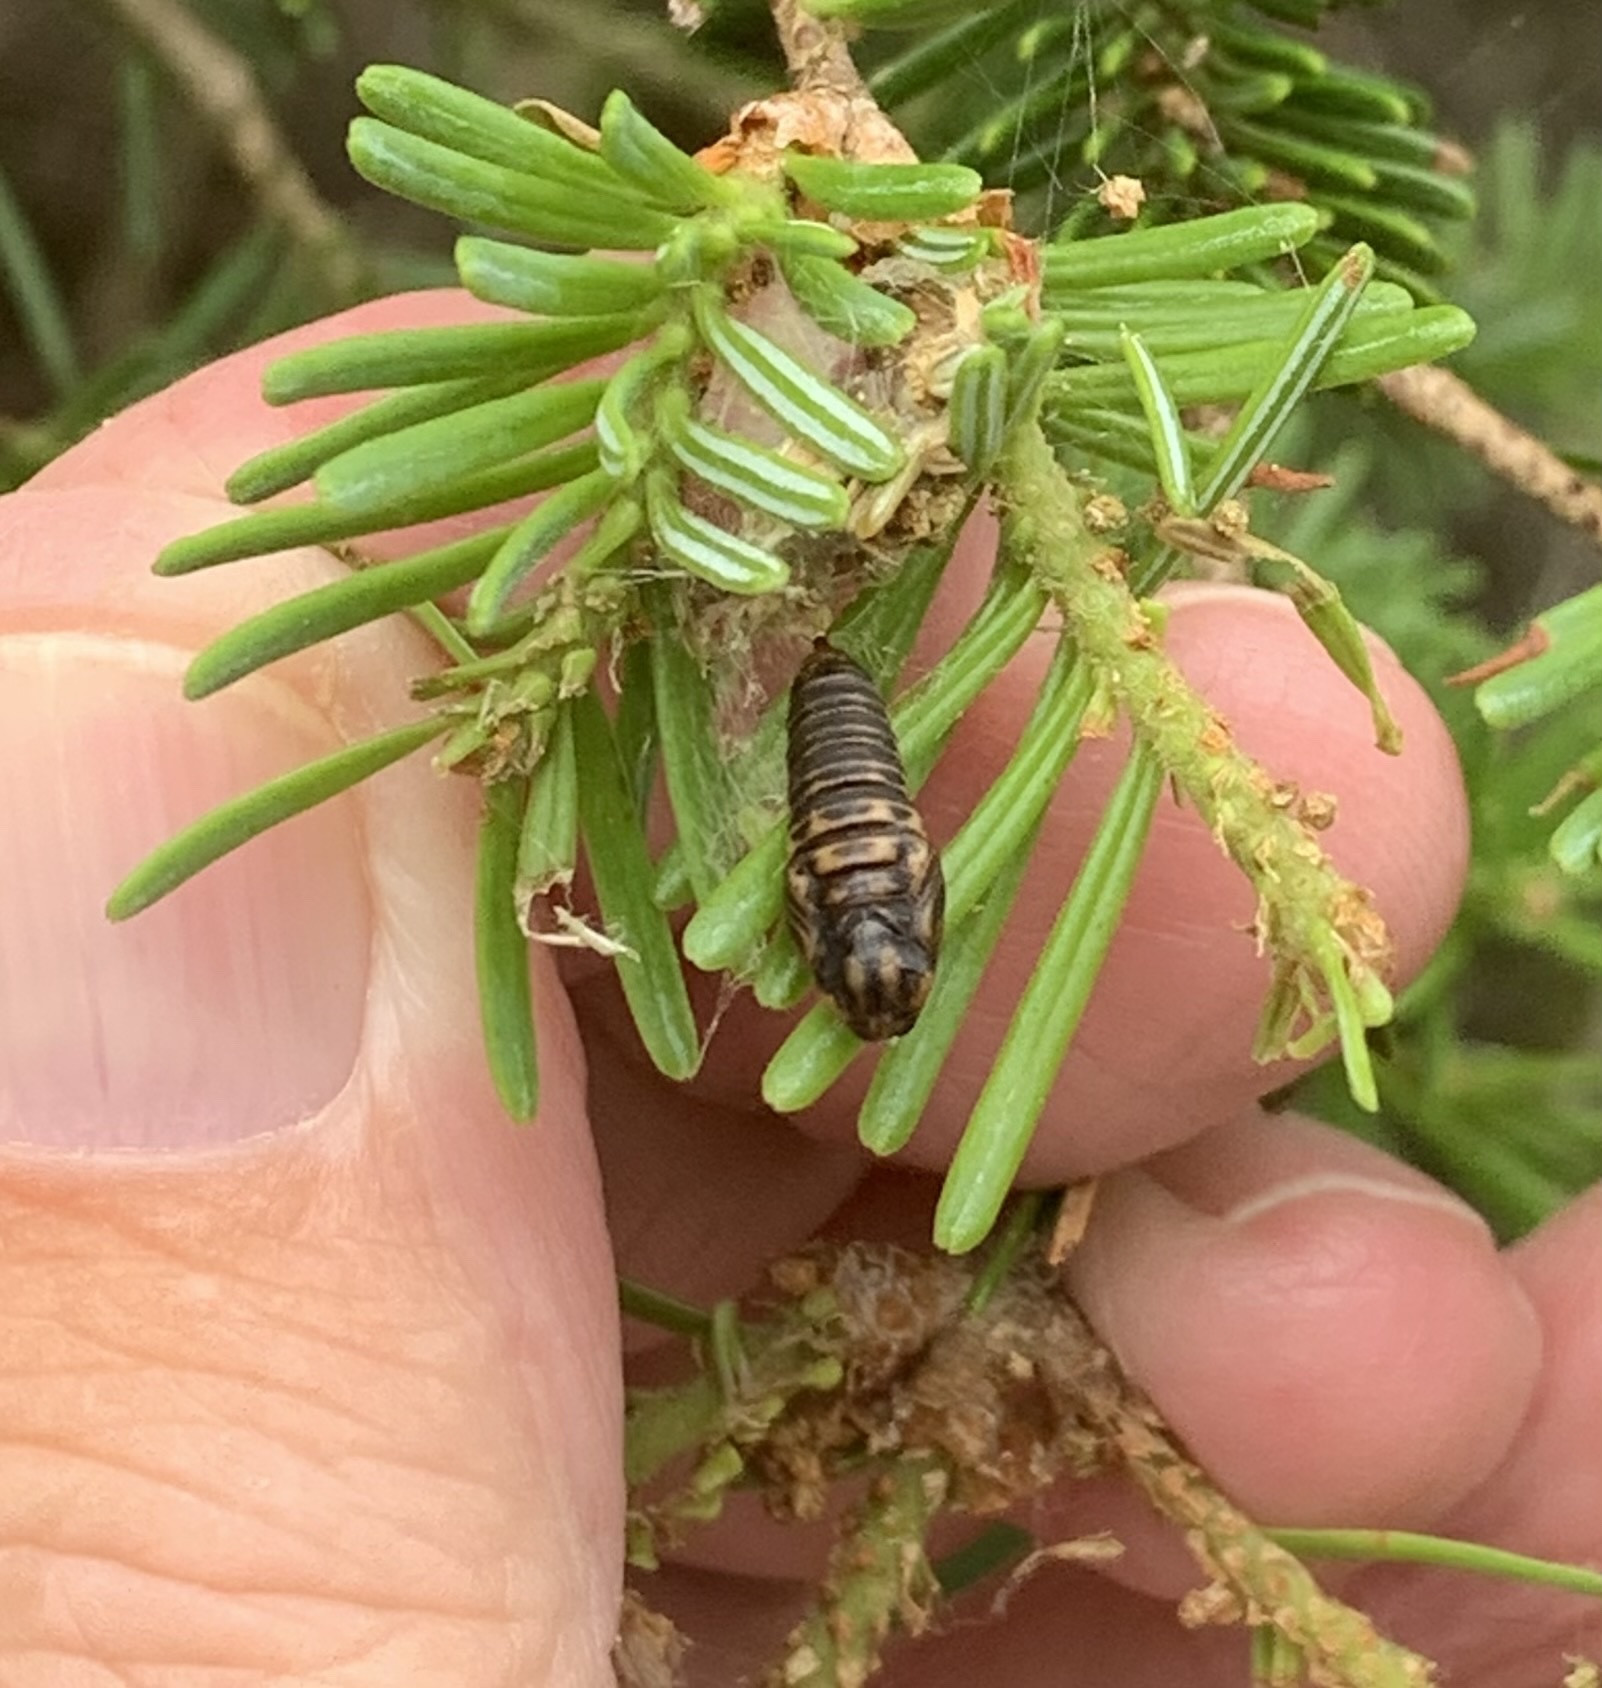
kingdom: Animalia
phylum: Arthropoda
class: Insecta
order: Lepidoptera
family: Tortricidae
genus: Choristoneura
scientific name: Choristoneura fumiferana
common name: Spruce budworm
